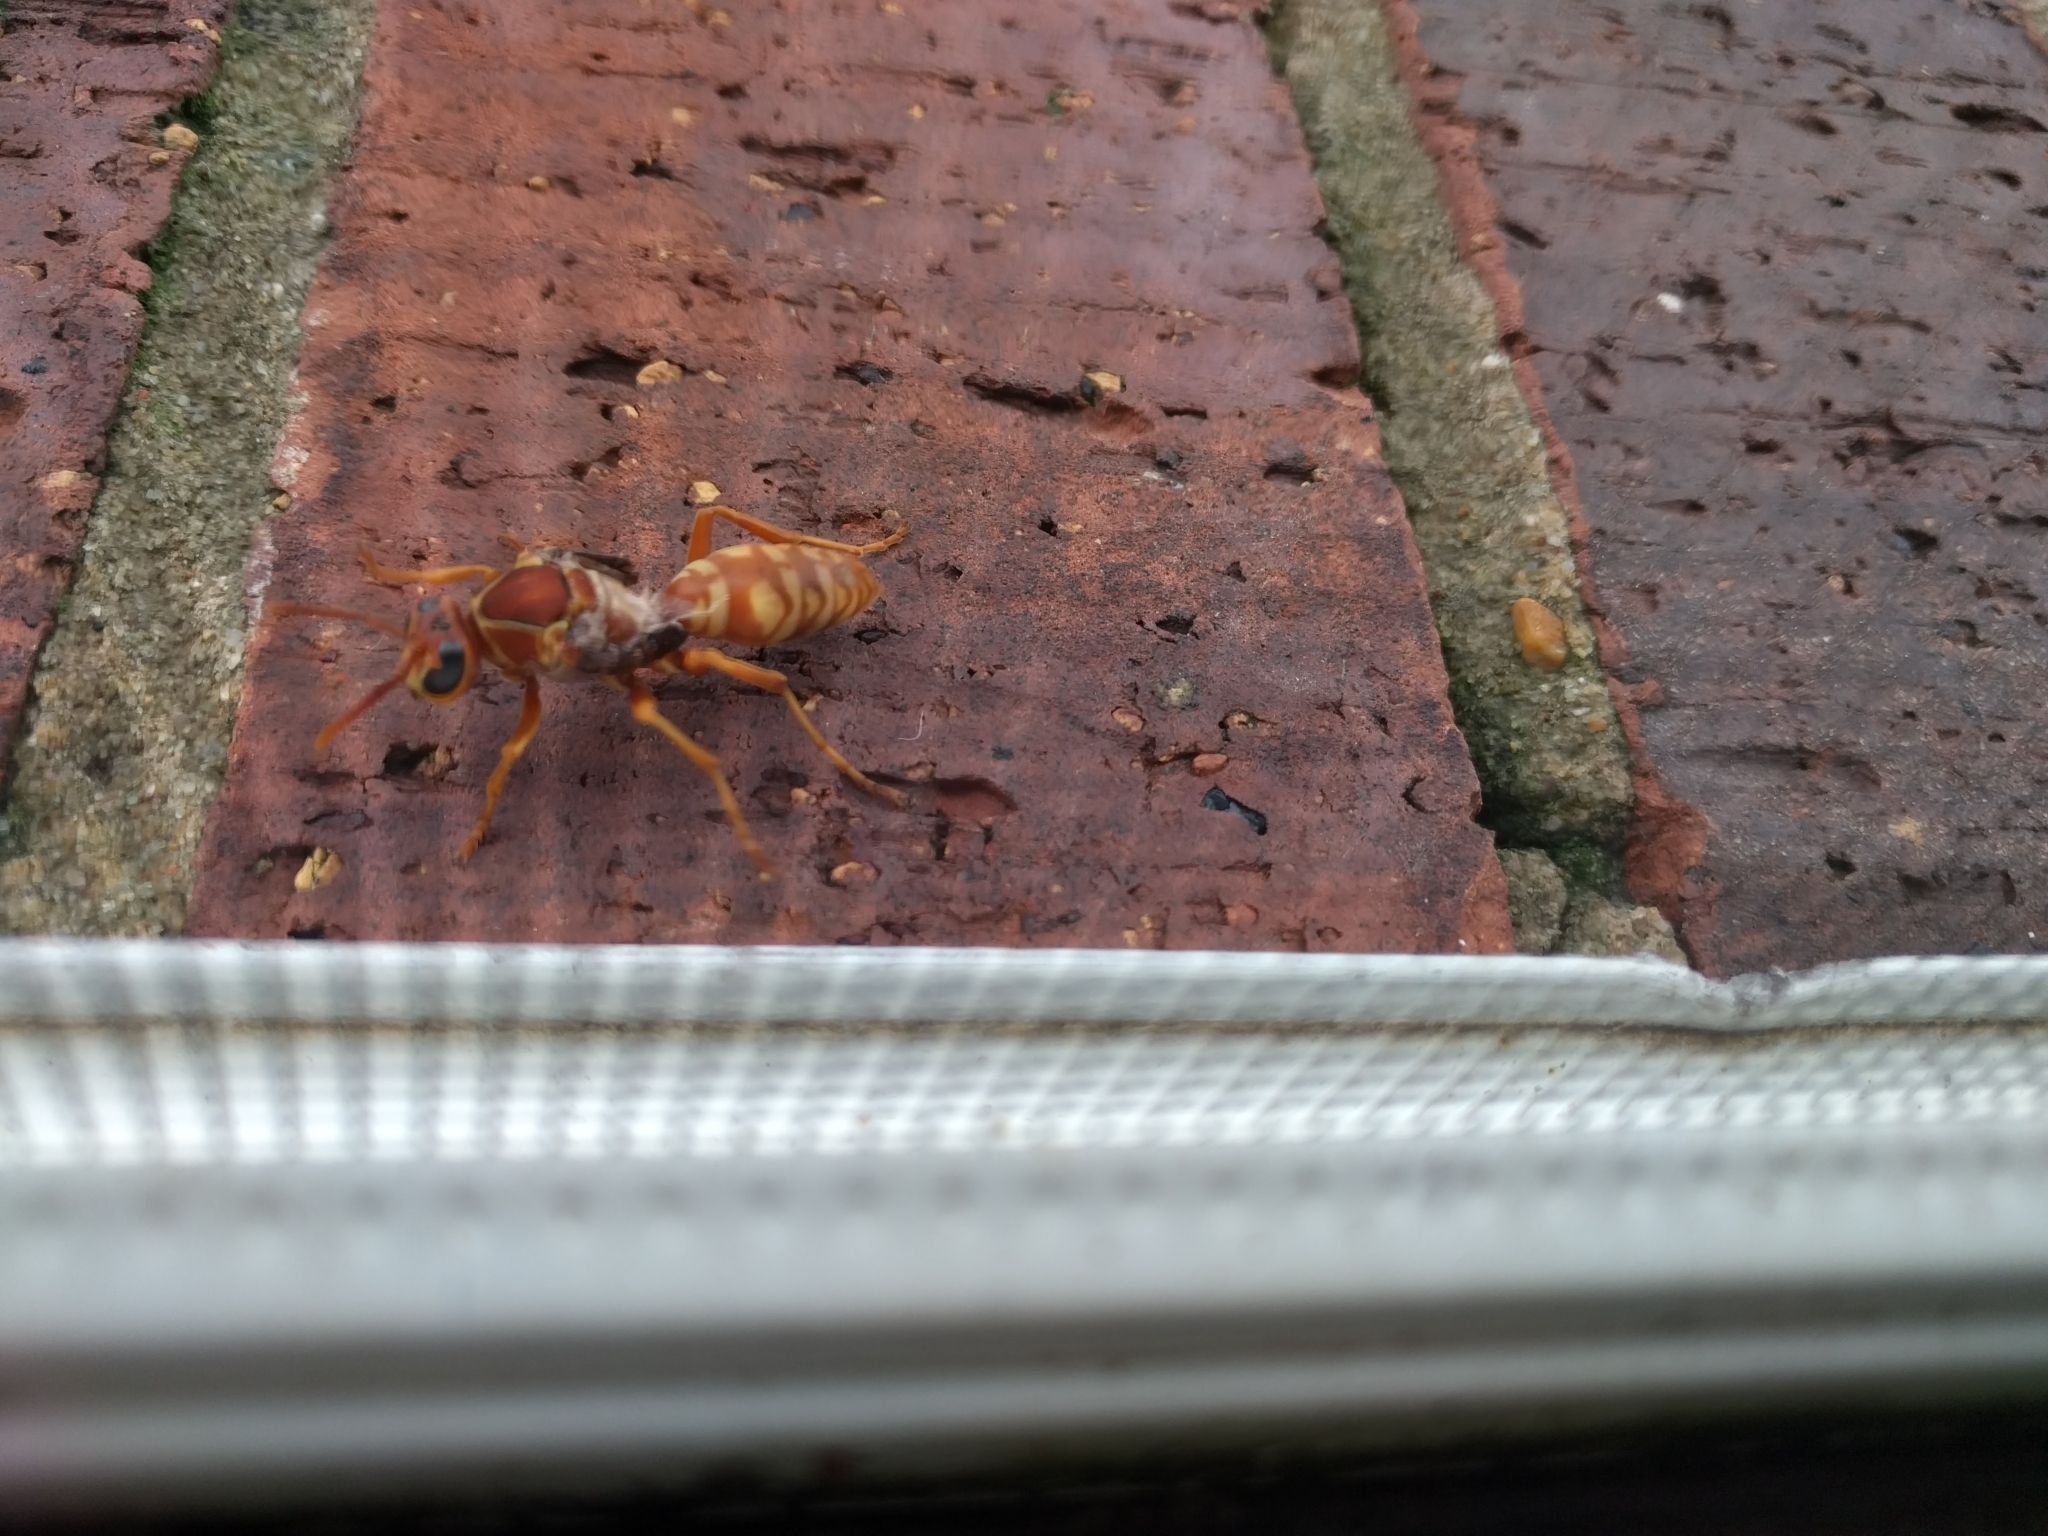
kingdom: Animalia
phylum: Arthropoda
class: Insecta
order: Hymenoptera
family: Eumenidae
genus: Polistes
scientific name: Polistes apachus
